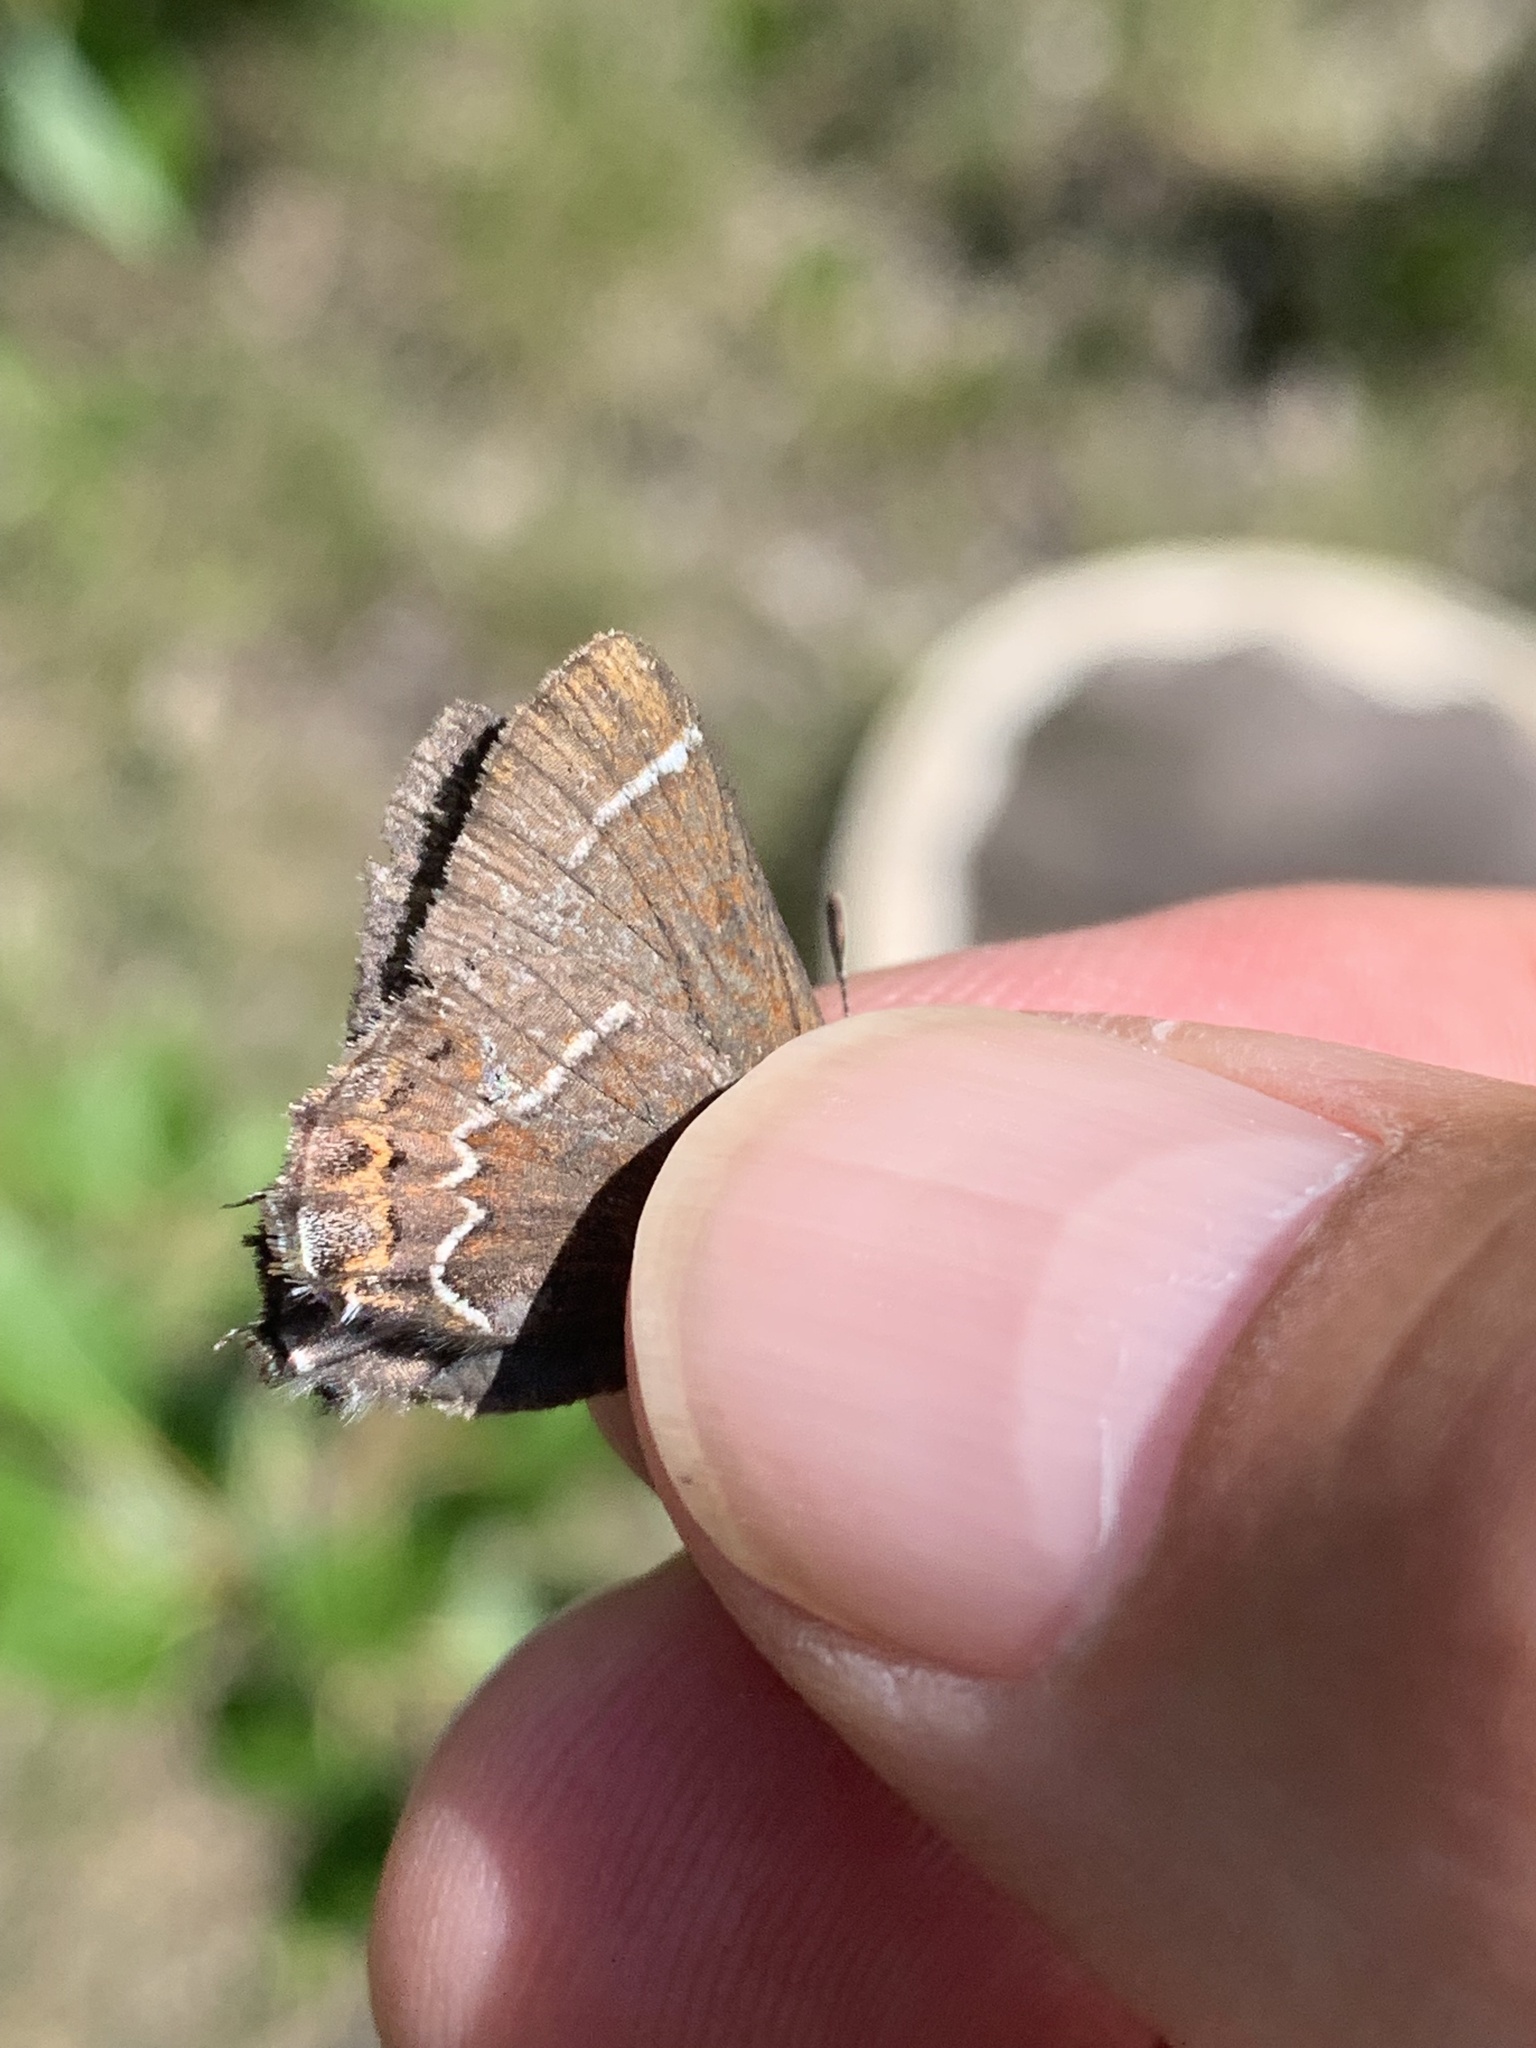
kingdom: Animalia
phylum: Arthropoda
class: Insecta
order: Lepidoptera
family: Lycaenidae
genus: Mitoura
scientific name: Mitoura spinetorum
